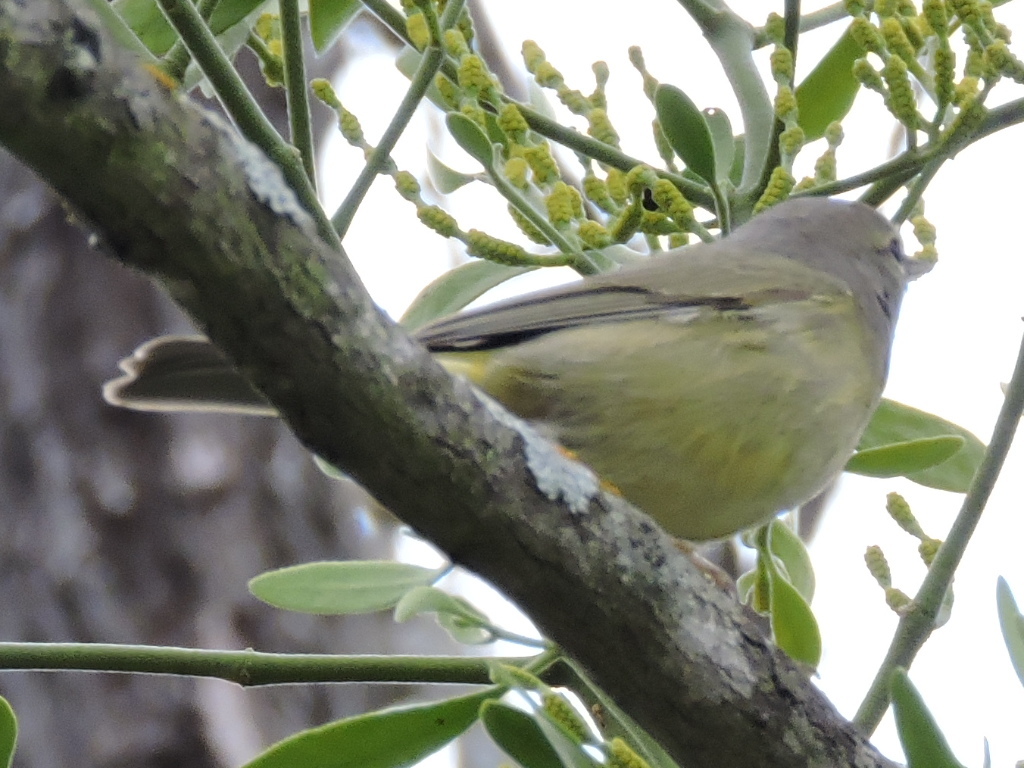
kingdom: Animalia
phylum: Chordata
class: Aves
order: Passeriformes
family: Parulidae
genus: Leiothlypis
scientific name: Leiothlypis celata
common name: Orange-crowned warbler
